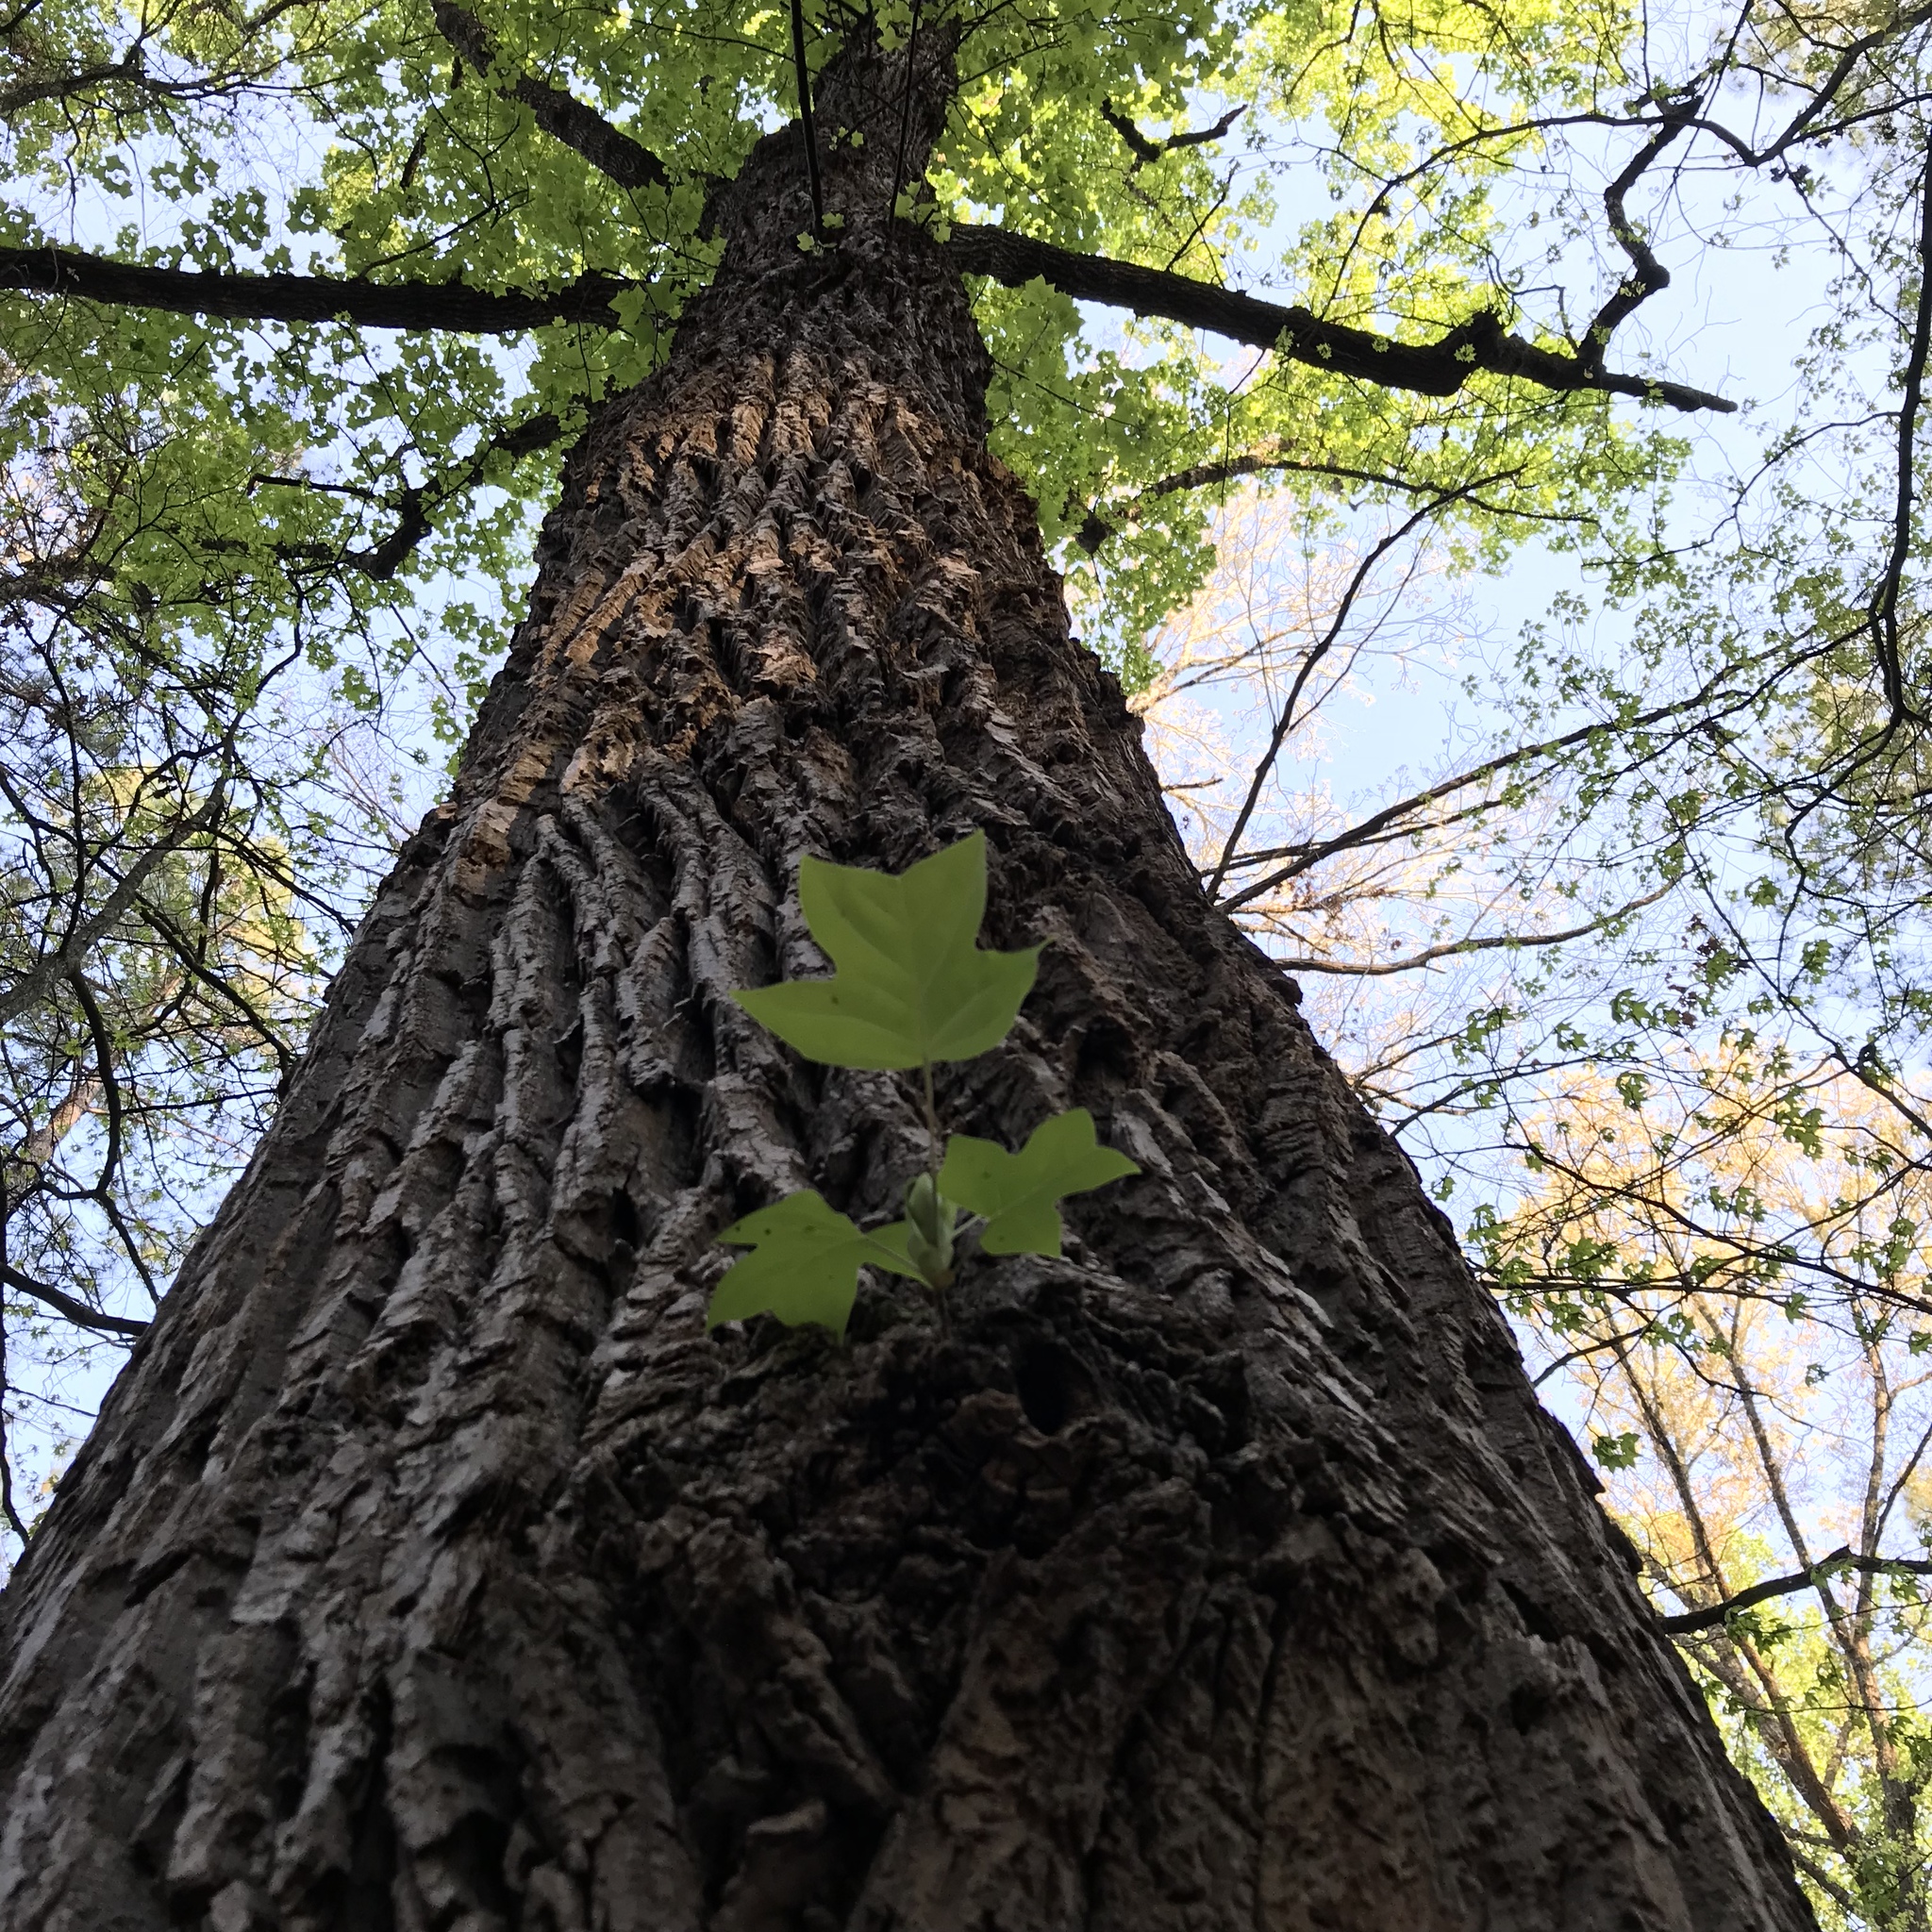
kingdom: Plantae
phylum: Tracheophyta
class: Magnoliopsida
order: Magnoliales
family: Magnoliaceae
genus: Liriodendron
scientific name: Liriodendron tulipifera
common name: Tulip tree
